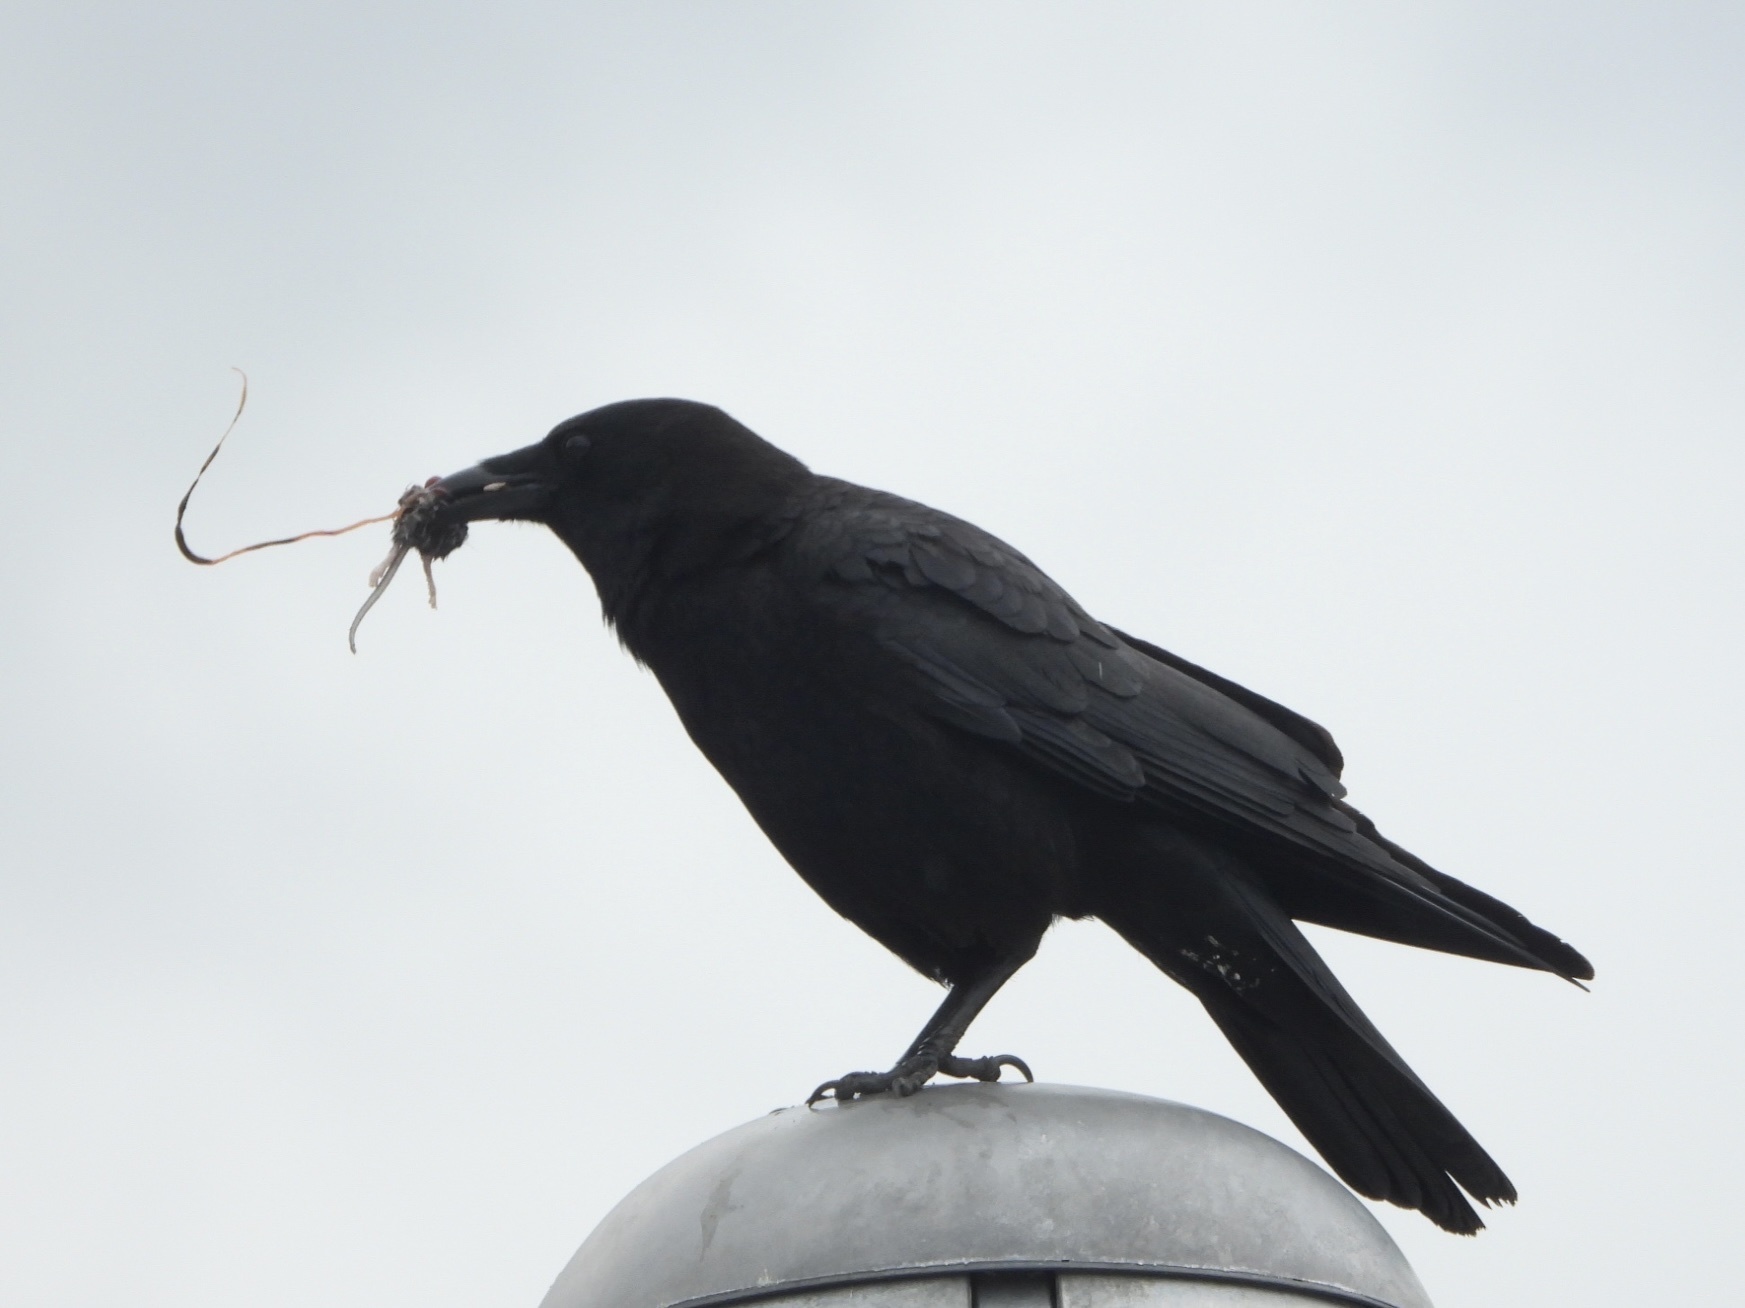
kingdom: Animalia
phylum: Chordata
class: Aves
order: Passeriformes
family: Corvidae
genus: Corvus
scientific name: Corvus brachyrhynchos
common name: American crow
